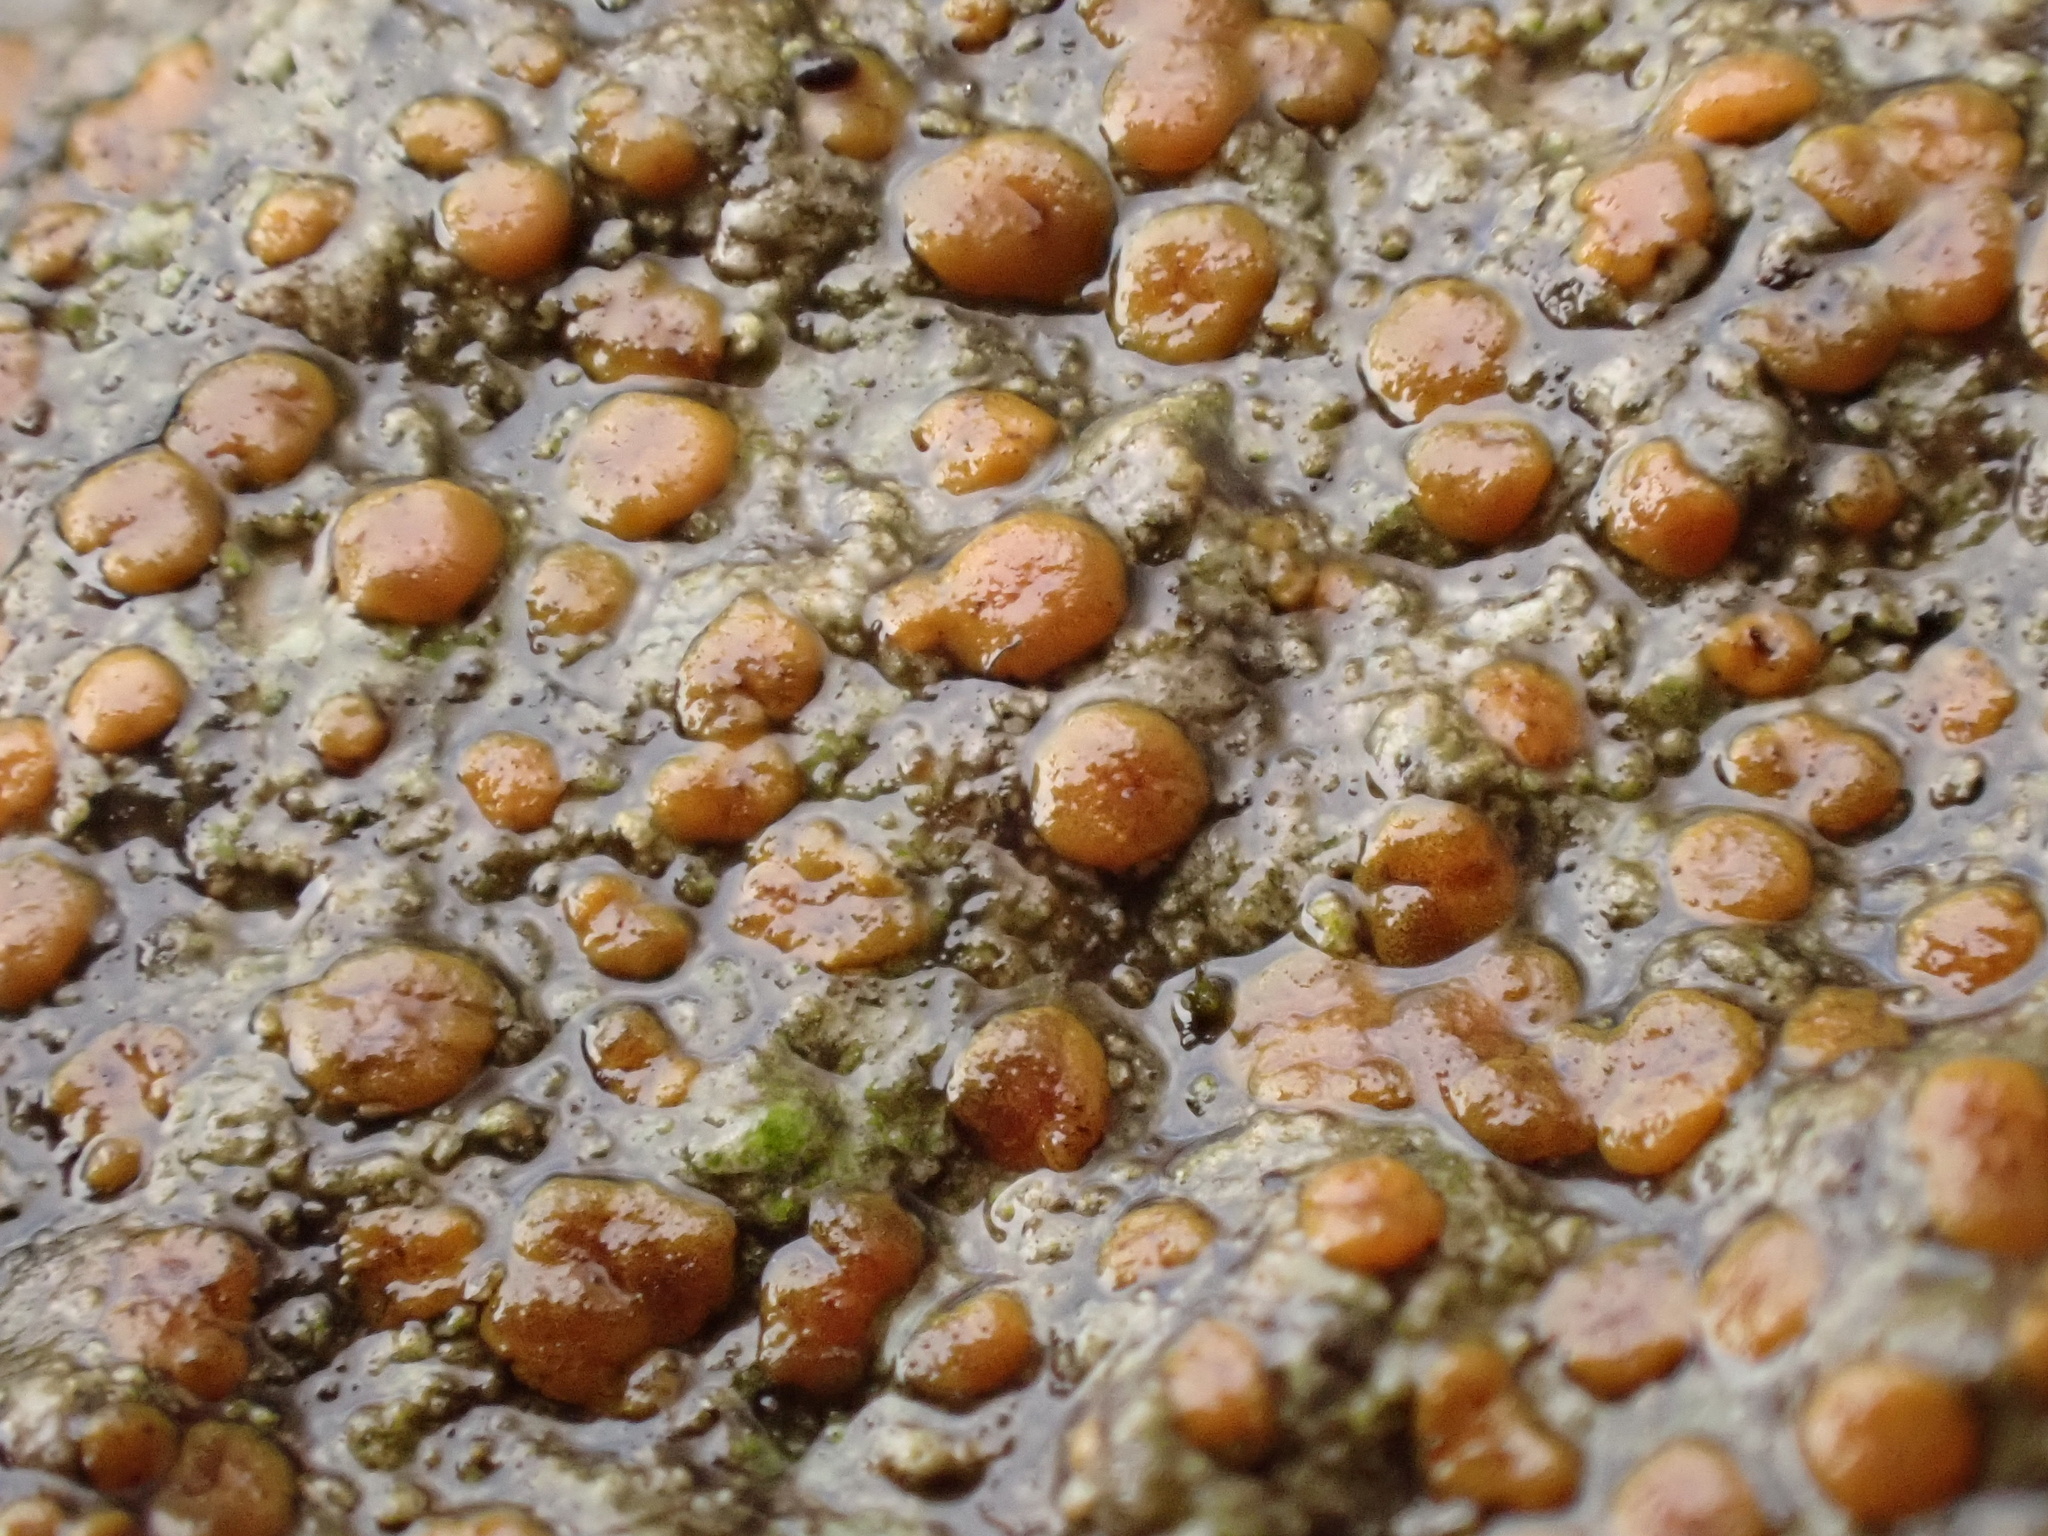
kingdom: Fungi
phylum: Ascomycota
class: Lecanoromycetes
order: Lecanorales
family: Psoraceae
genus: Protoblastenia
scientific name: Protoblastenia rupestris
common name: Chewing gum lichen
